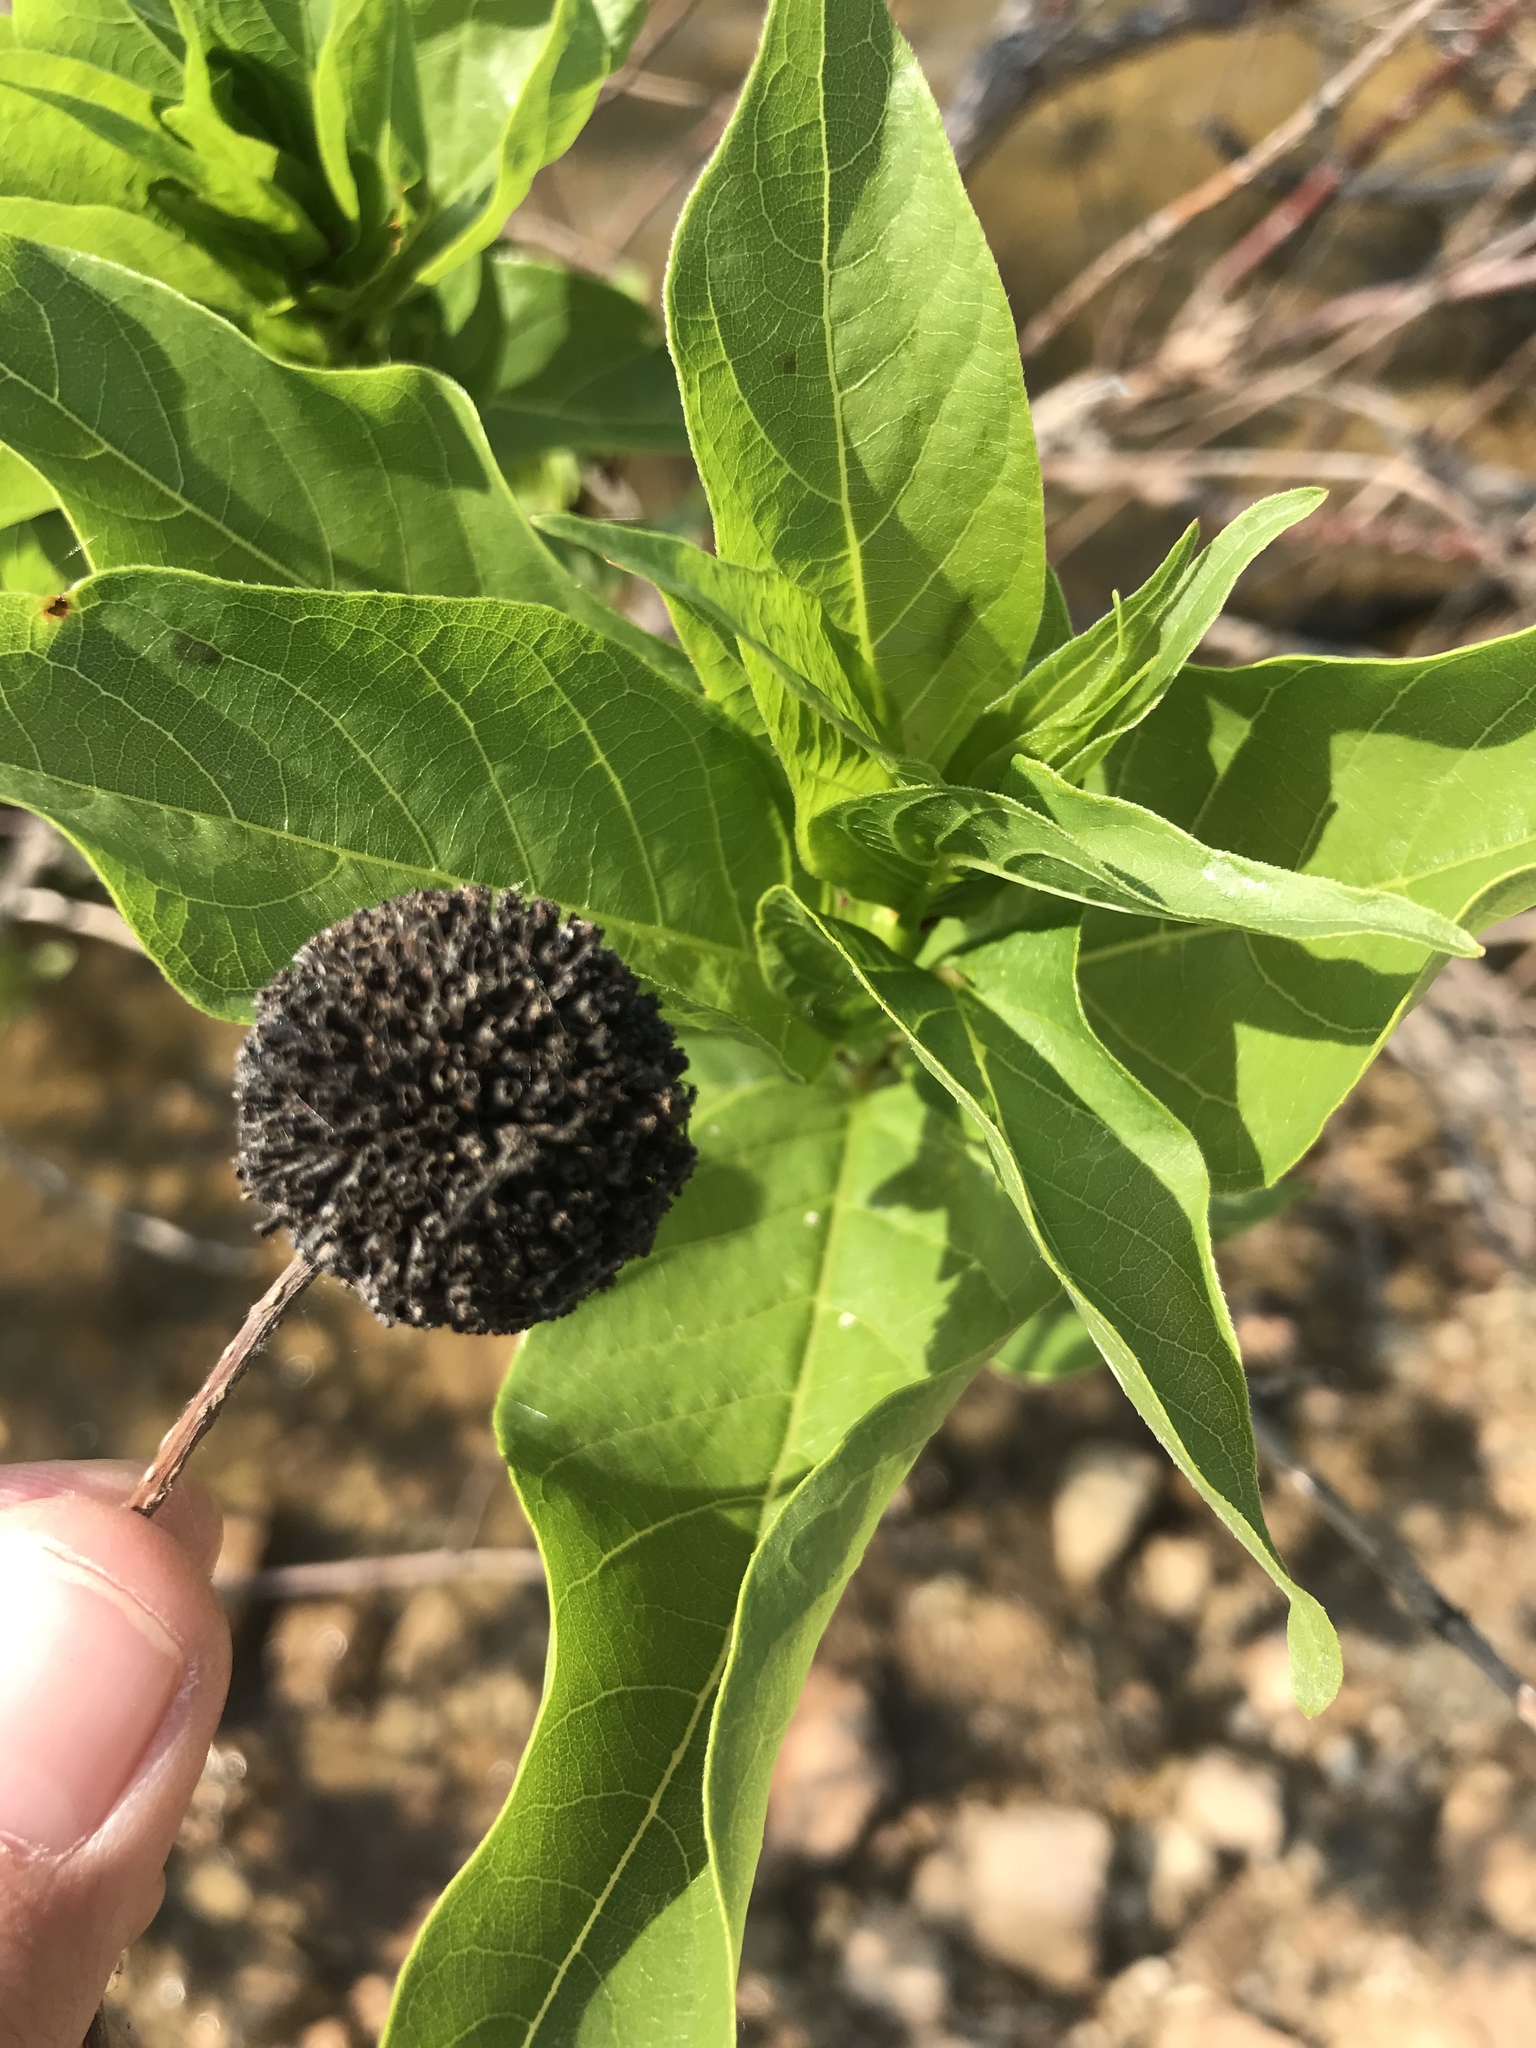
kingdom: Plantae
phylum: Tracheophyta
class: Magnoliopsida
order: Gentianales
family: Rubiaceae
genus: Cephalanthus
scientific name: Cephalanthus occidentalis
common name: Button-willow
